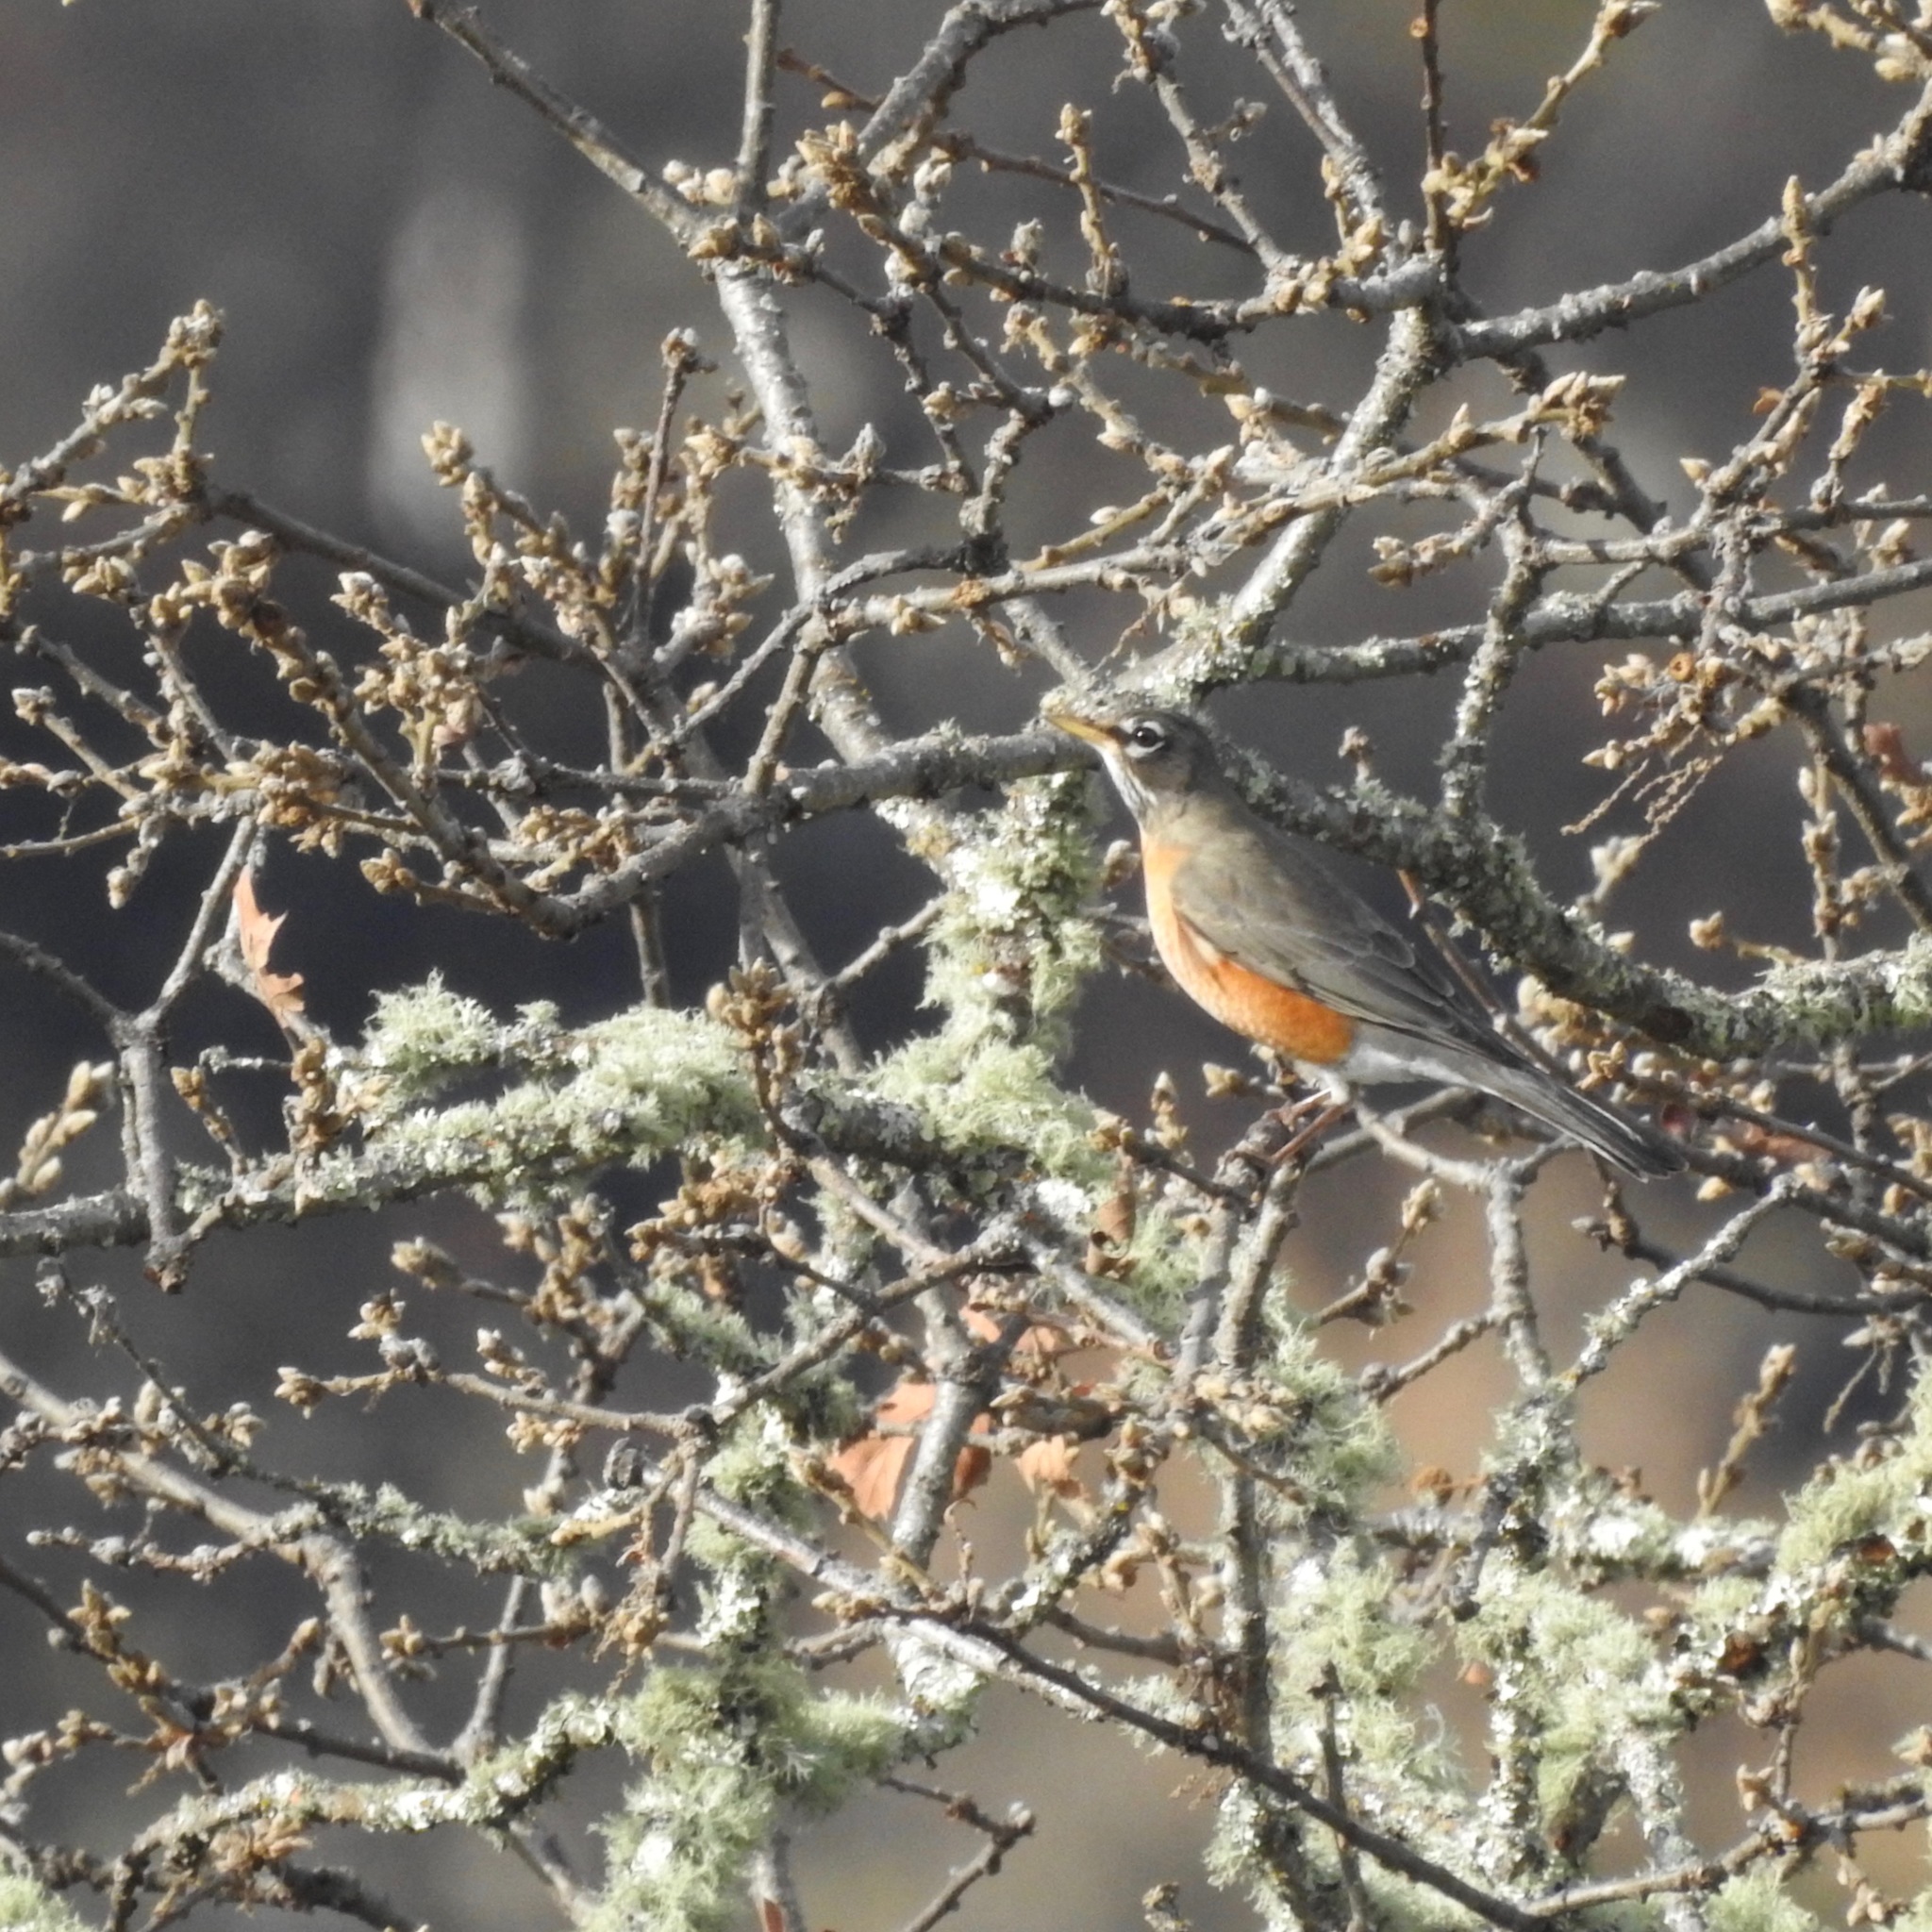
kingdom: Animalia
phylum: Chordata
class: Aves
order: Passeriformes
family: Turdidae
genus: Turdus
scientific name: Turdus migratorius
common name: American robin
